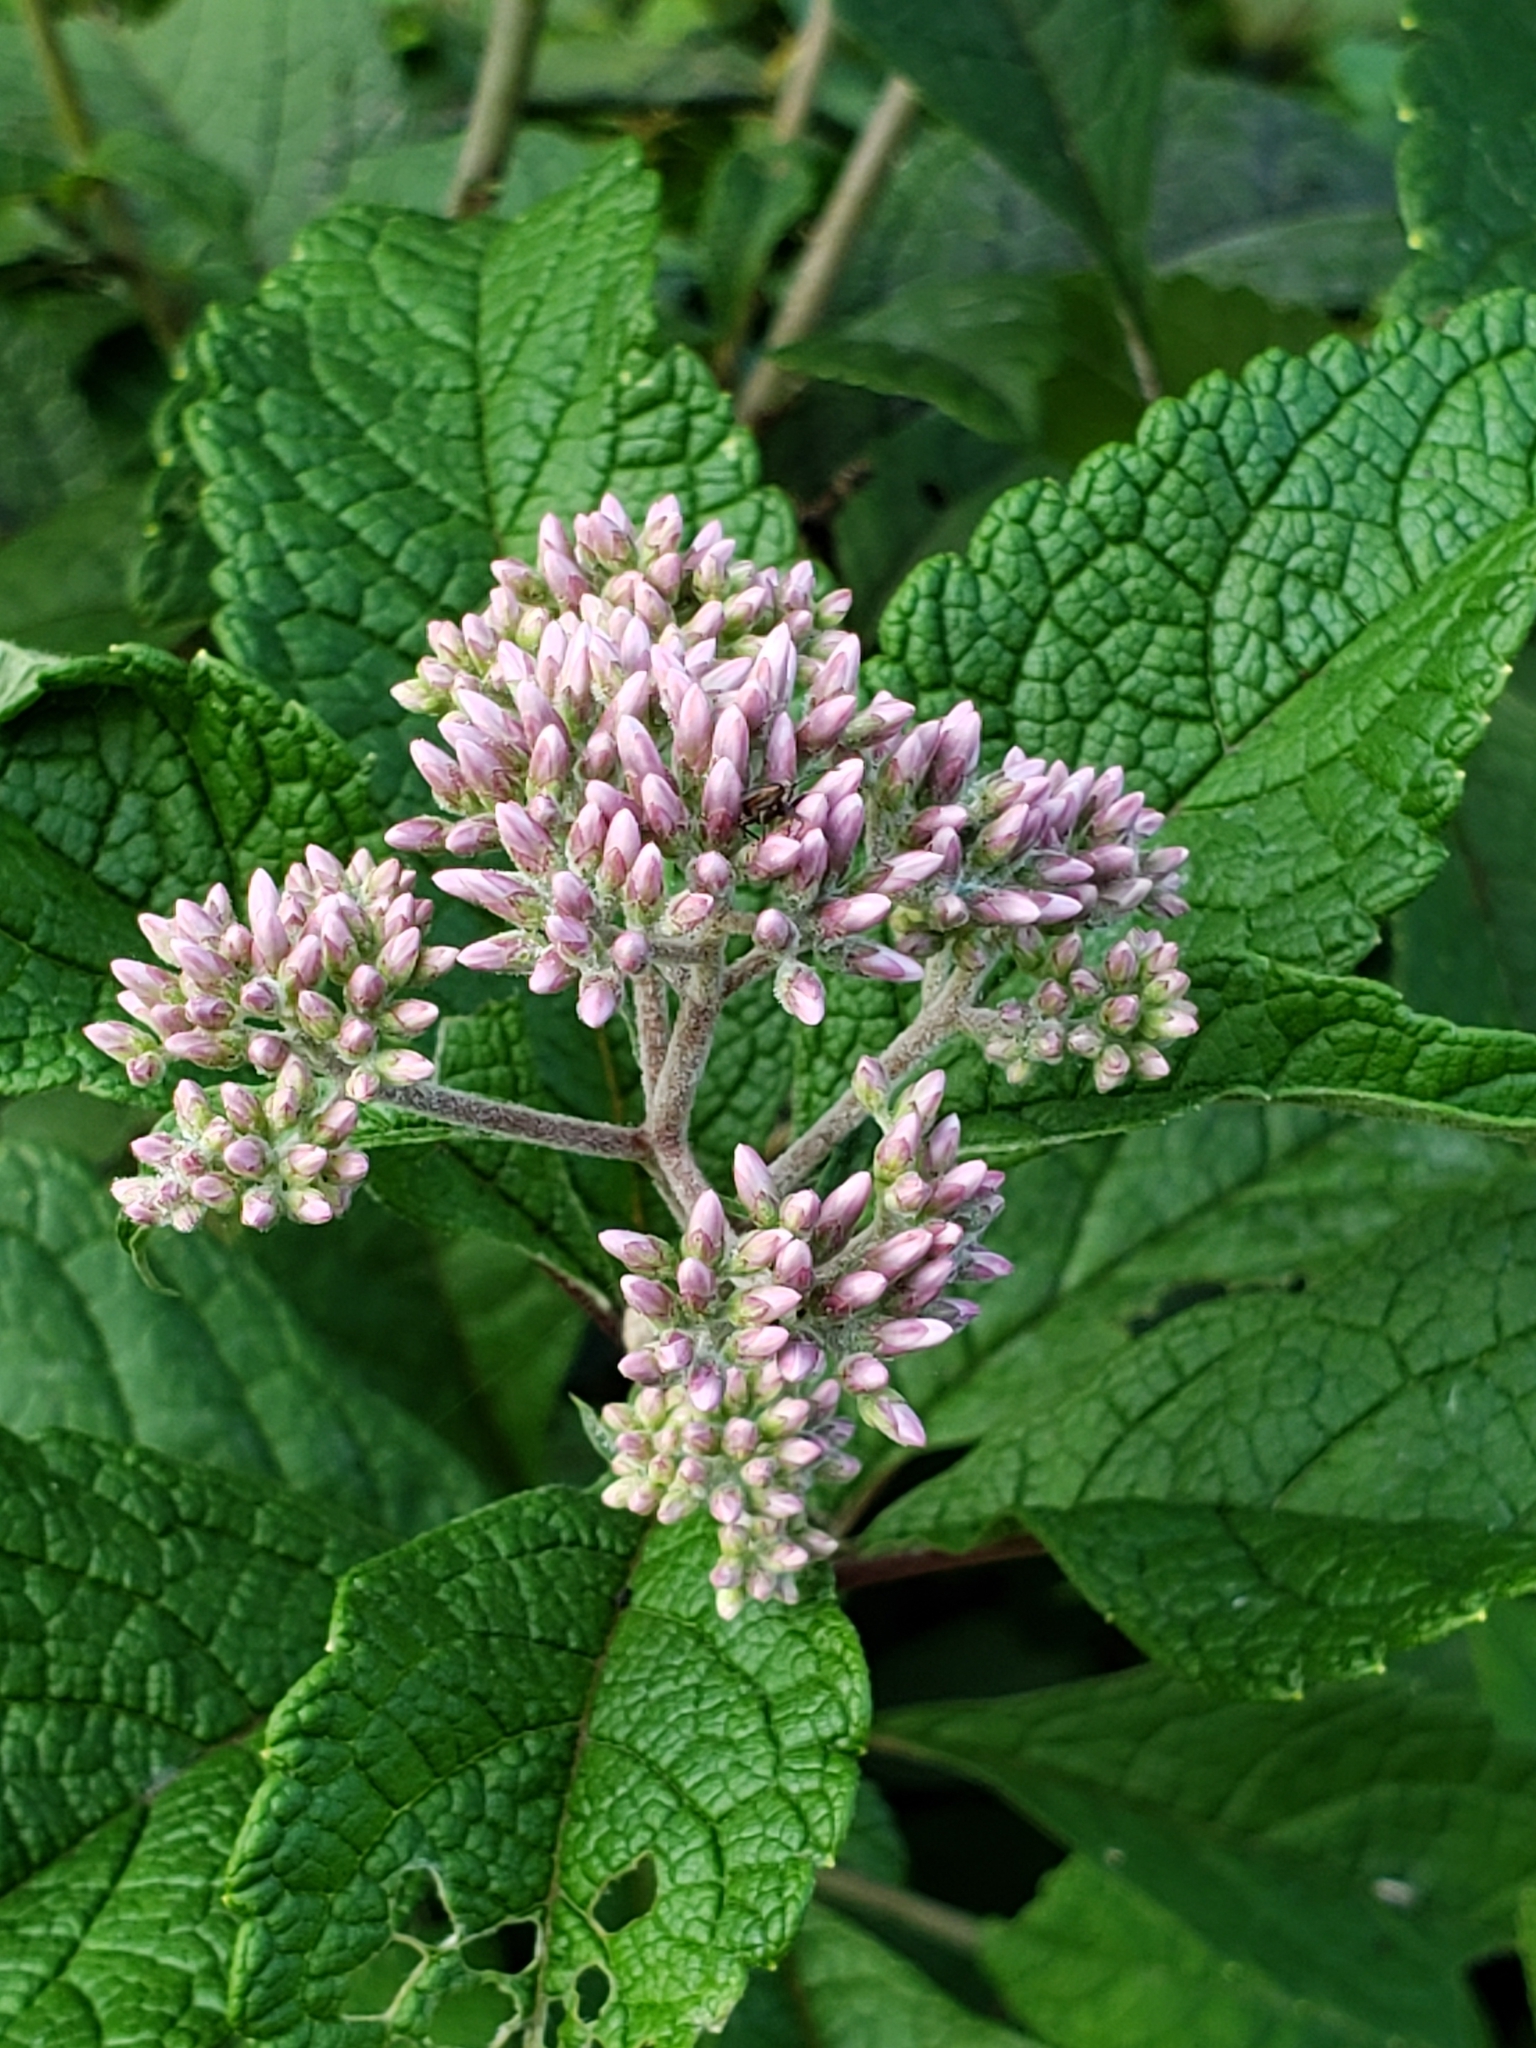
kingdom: Plantae
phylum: Tracheophyta
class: Magnoliopsida
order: Asterales
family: Asteraceae
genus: Eutrochium
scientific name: Eutrochium dubium
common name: Coastal plain joe pye weed
